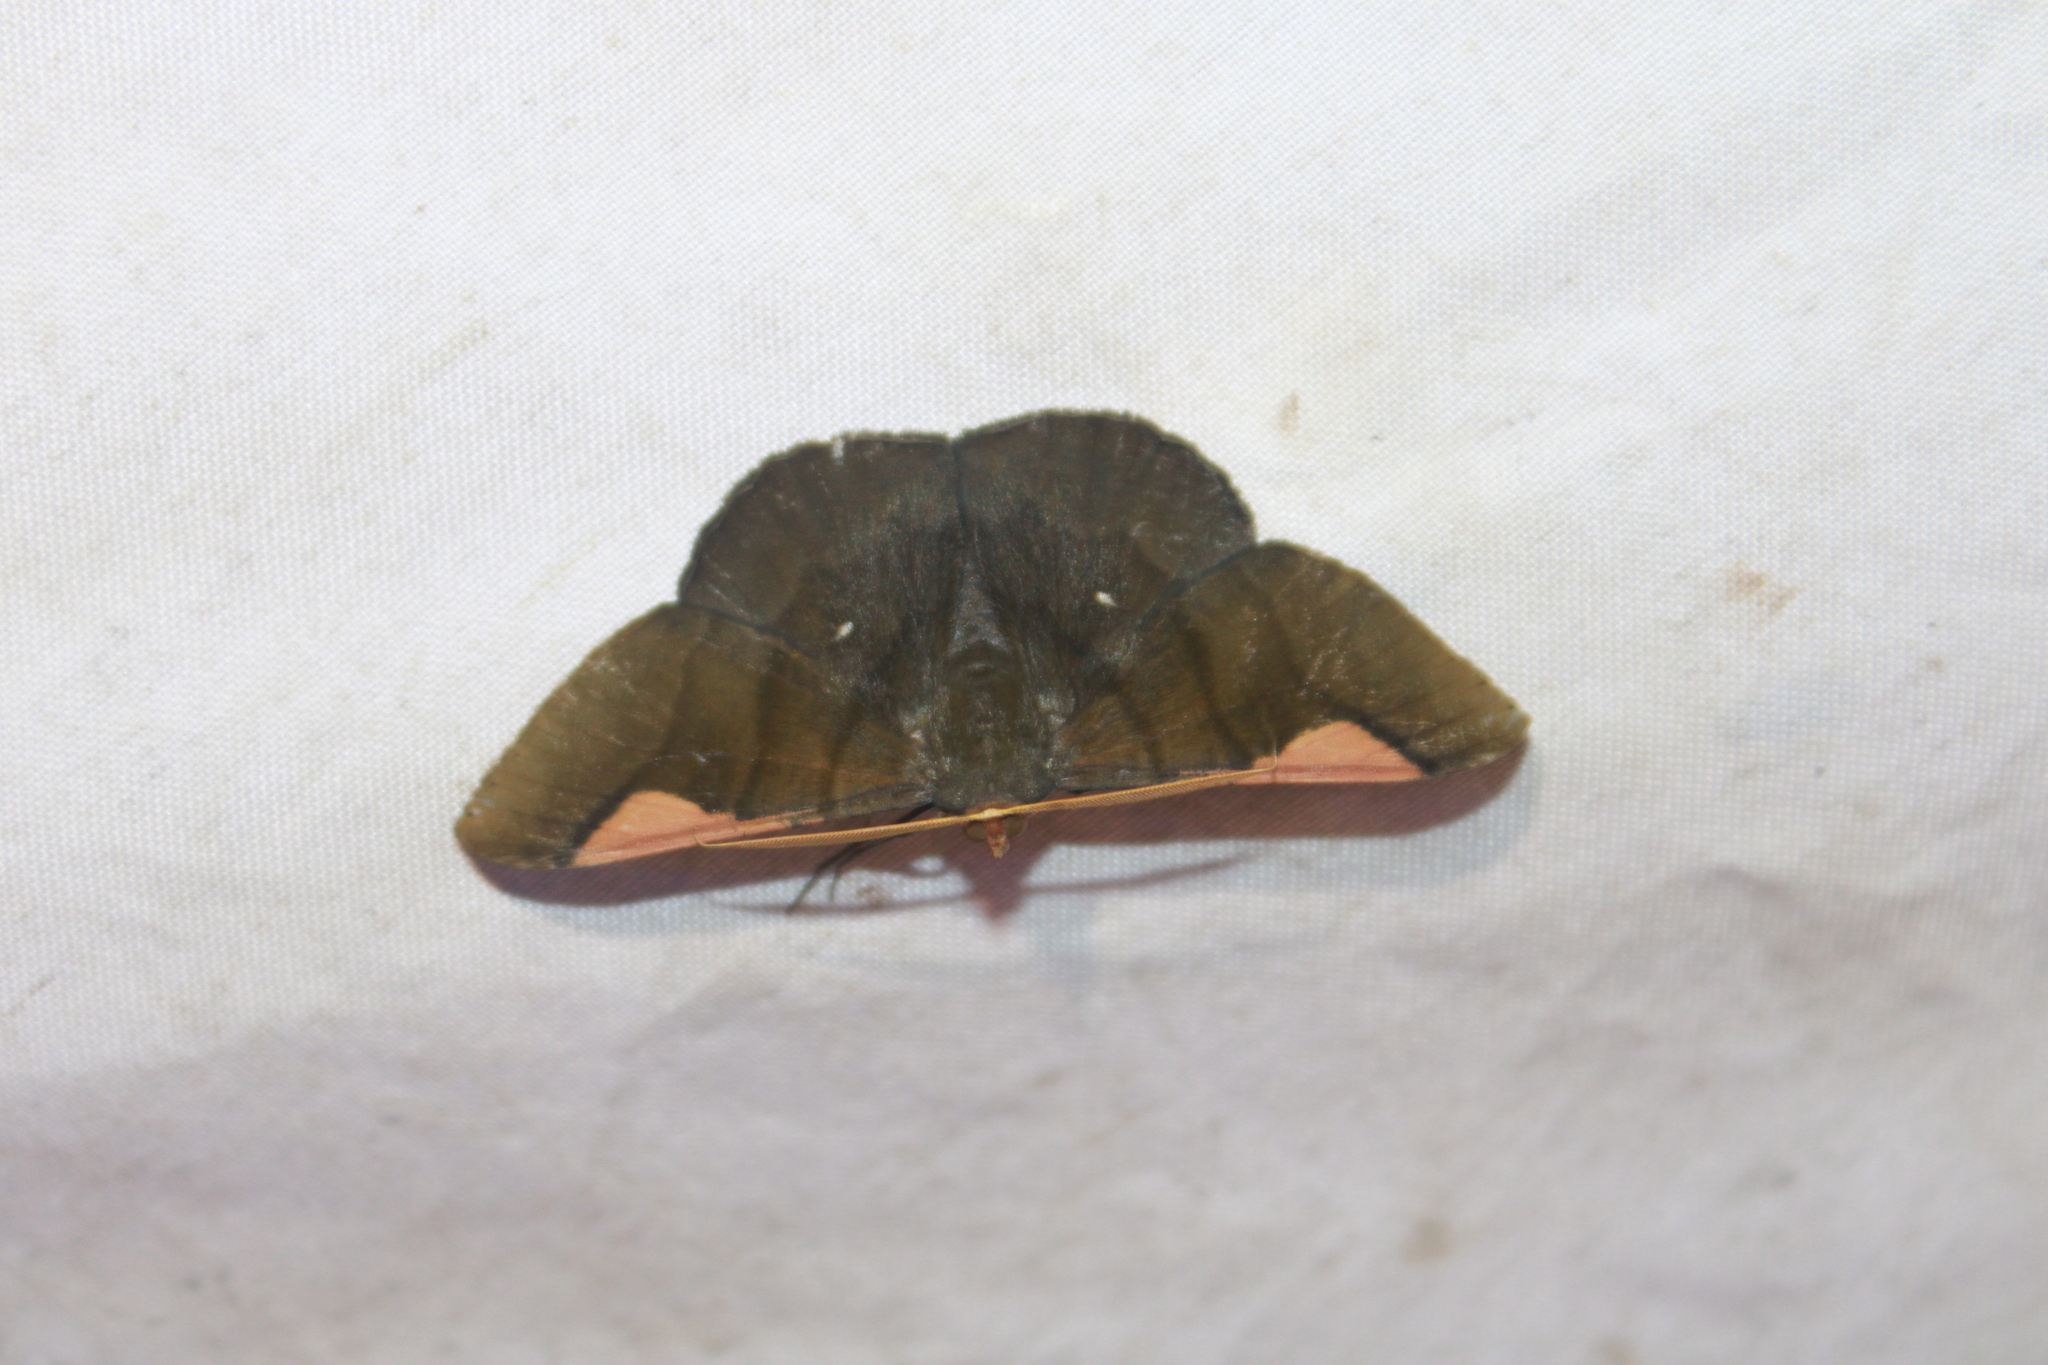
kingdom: Animalia
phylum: Arthropoda
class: Insecta
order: Lepidoptera
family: Geometridae
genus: Sphacelodes
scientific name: Sphacelodes vulneraria
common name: Looper moth
